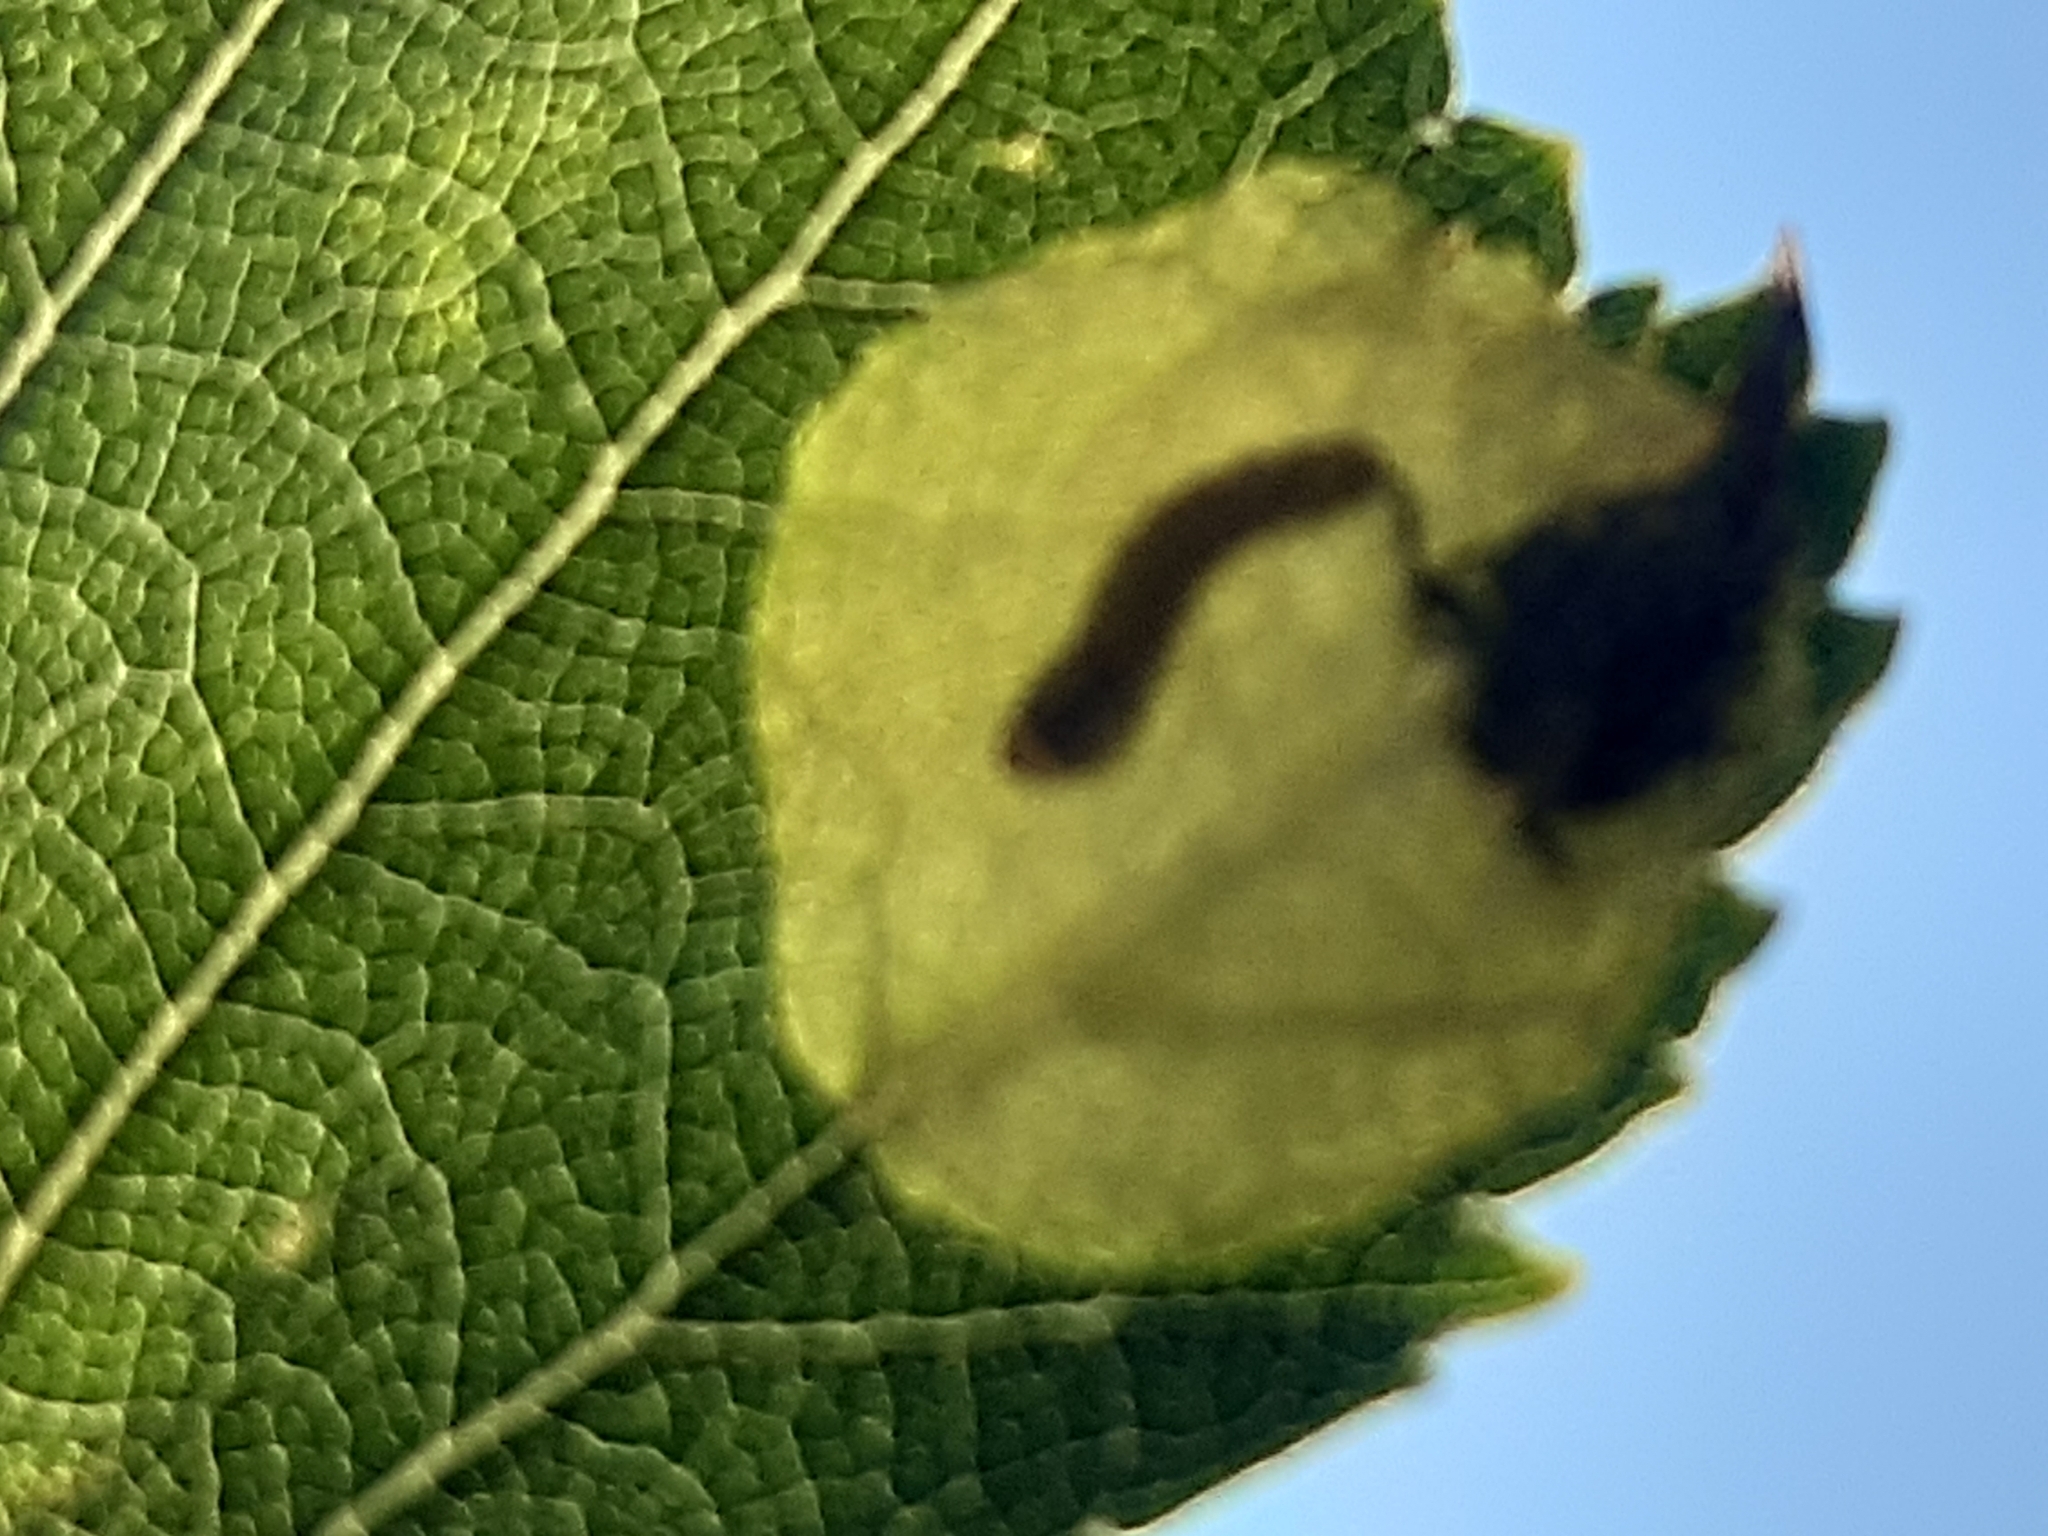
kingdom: Animalia
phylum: Arthropoda
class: Insecta
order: Hymenoptera
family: Tenthredinidae
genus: Fenusella
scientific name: Fenusella nana
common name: Early birch leaf edgeminer
